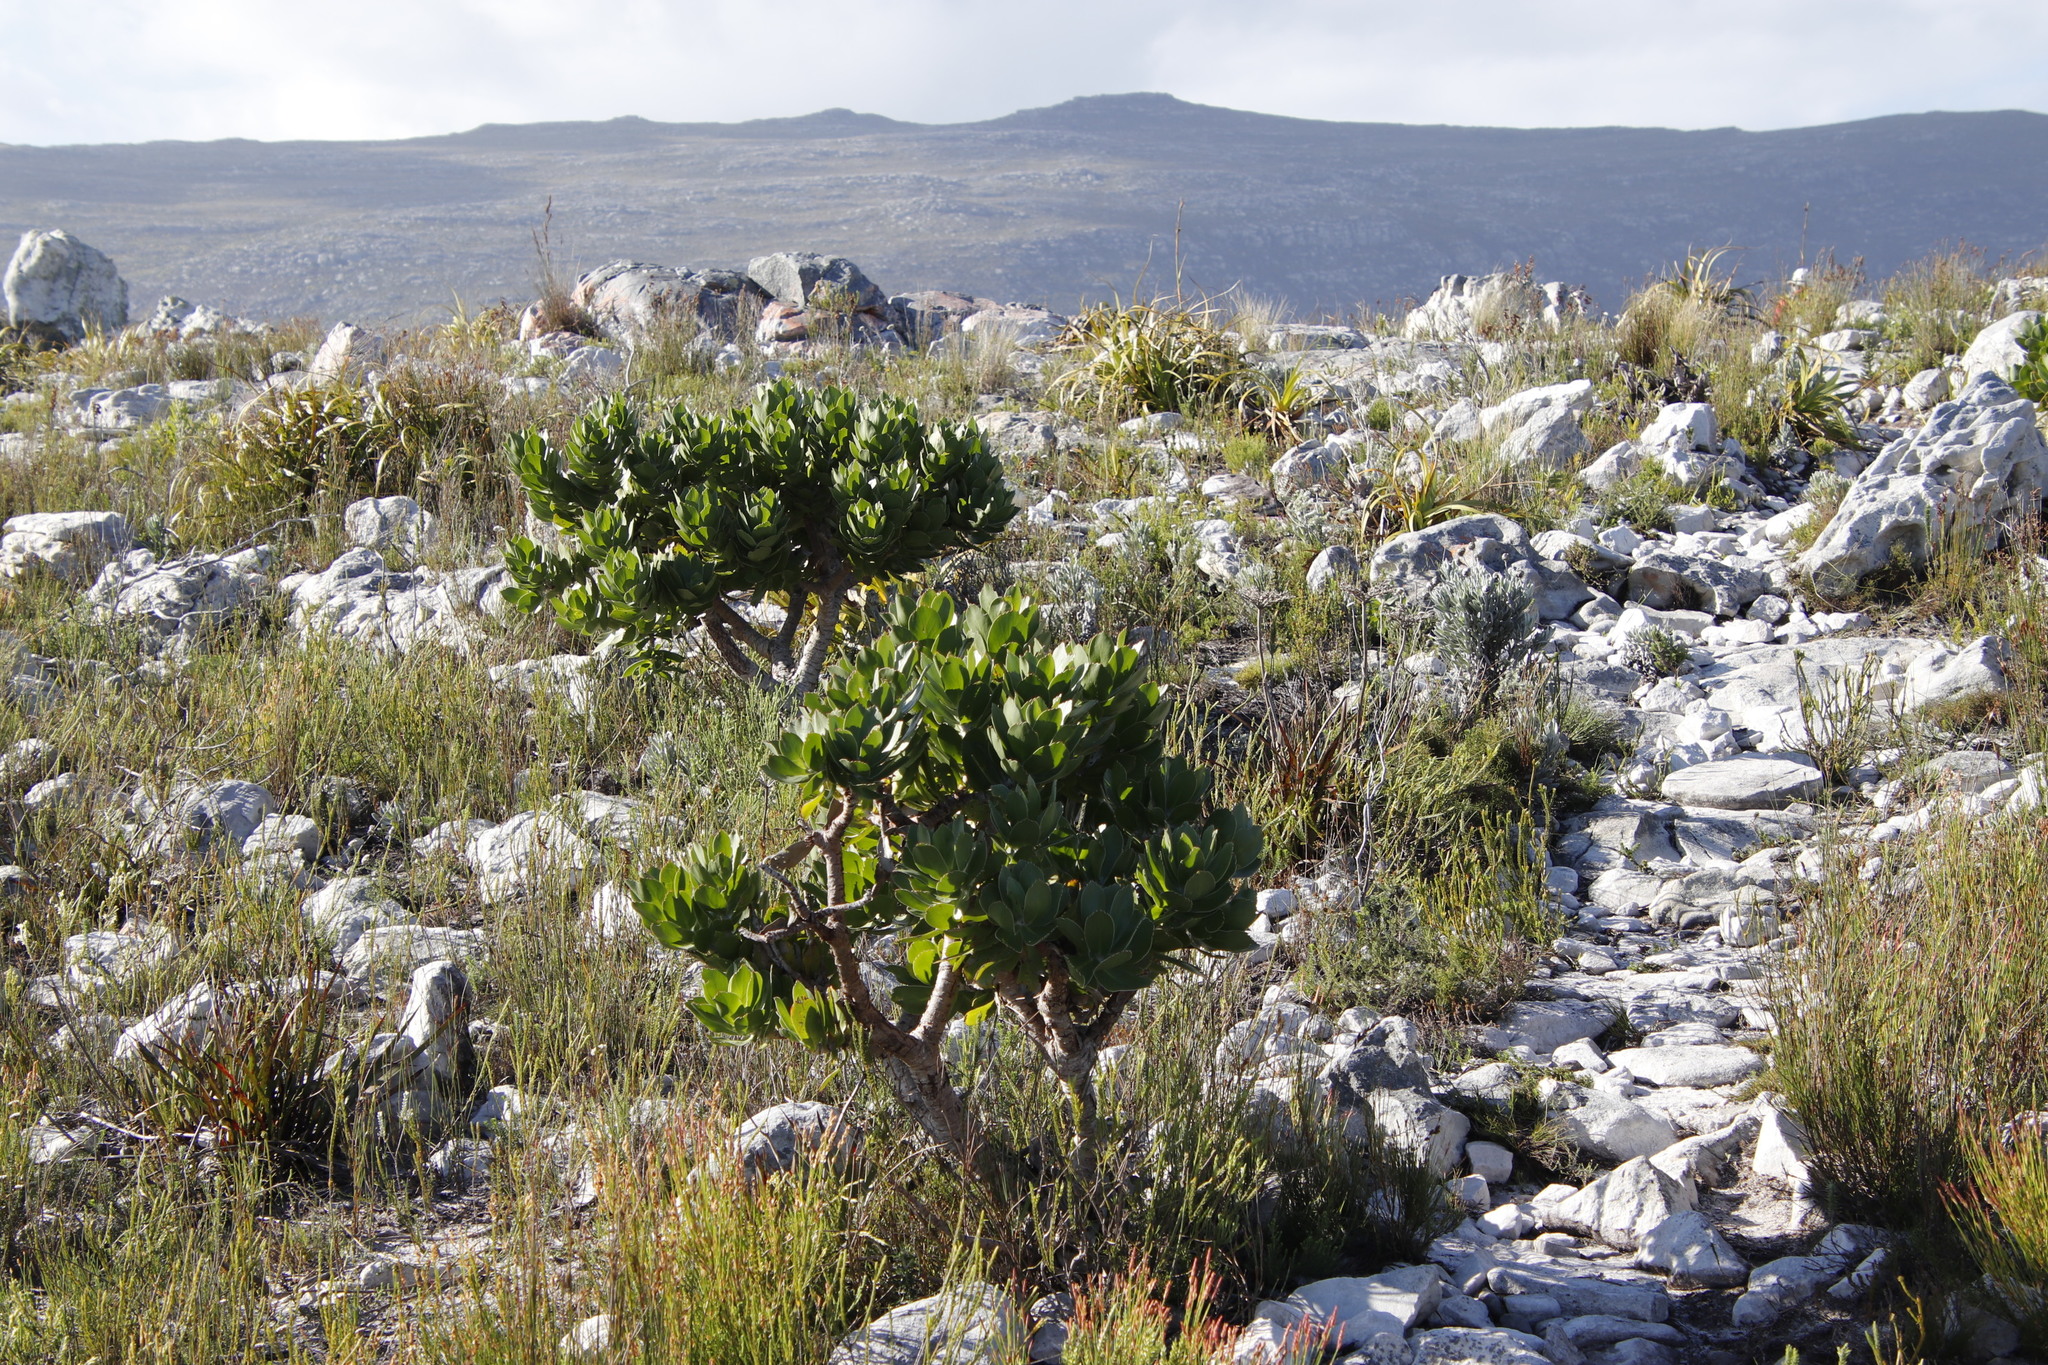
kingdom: Plantae
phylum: Tracheophyta
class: Magnoliopsida
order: Proteales
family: Proteaceae
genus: Leucospermum
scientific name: Leucospermum conocarpodendron
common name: Tree pincushion
